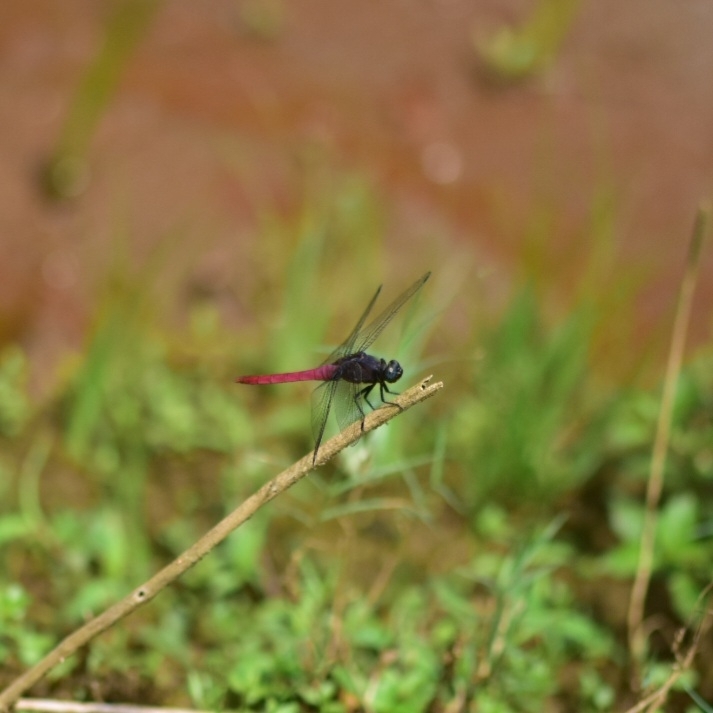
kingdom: Animalia
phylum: Arthropoda
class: Insecta
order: Odonata
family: Libellulidae
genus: Orthetrum
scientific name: Orthetrum pruinosum
